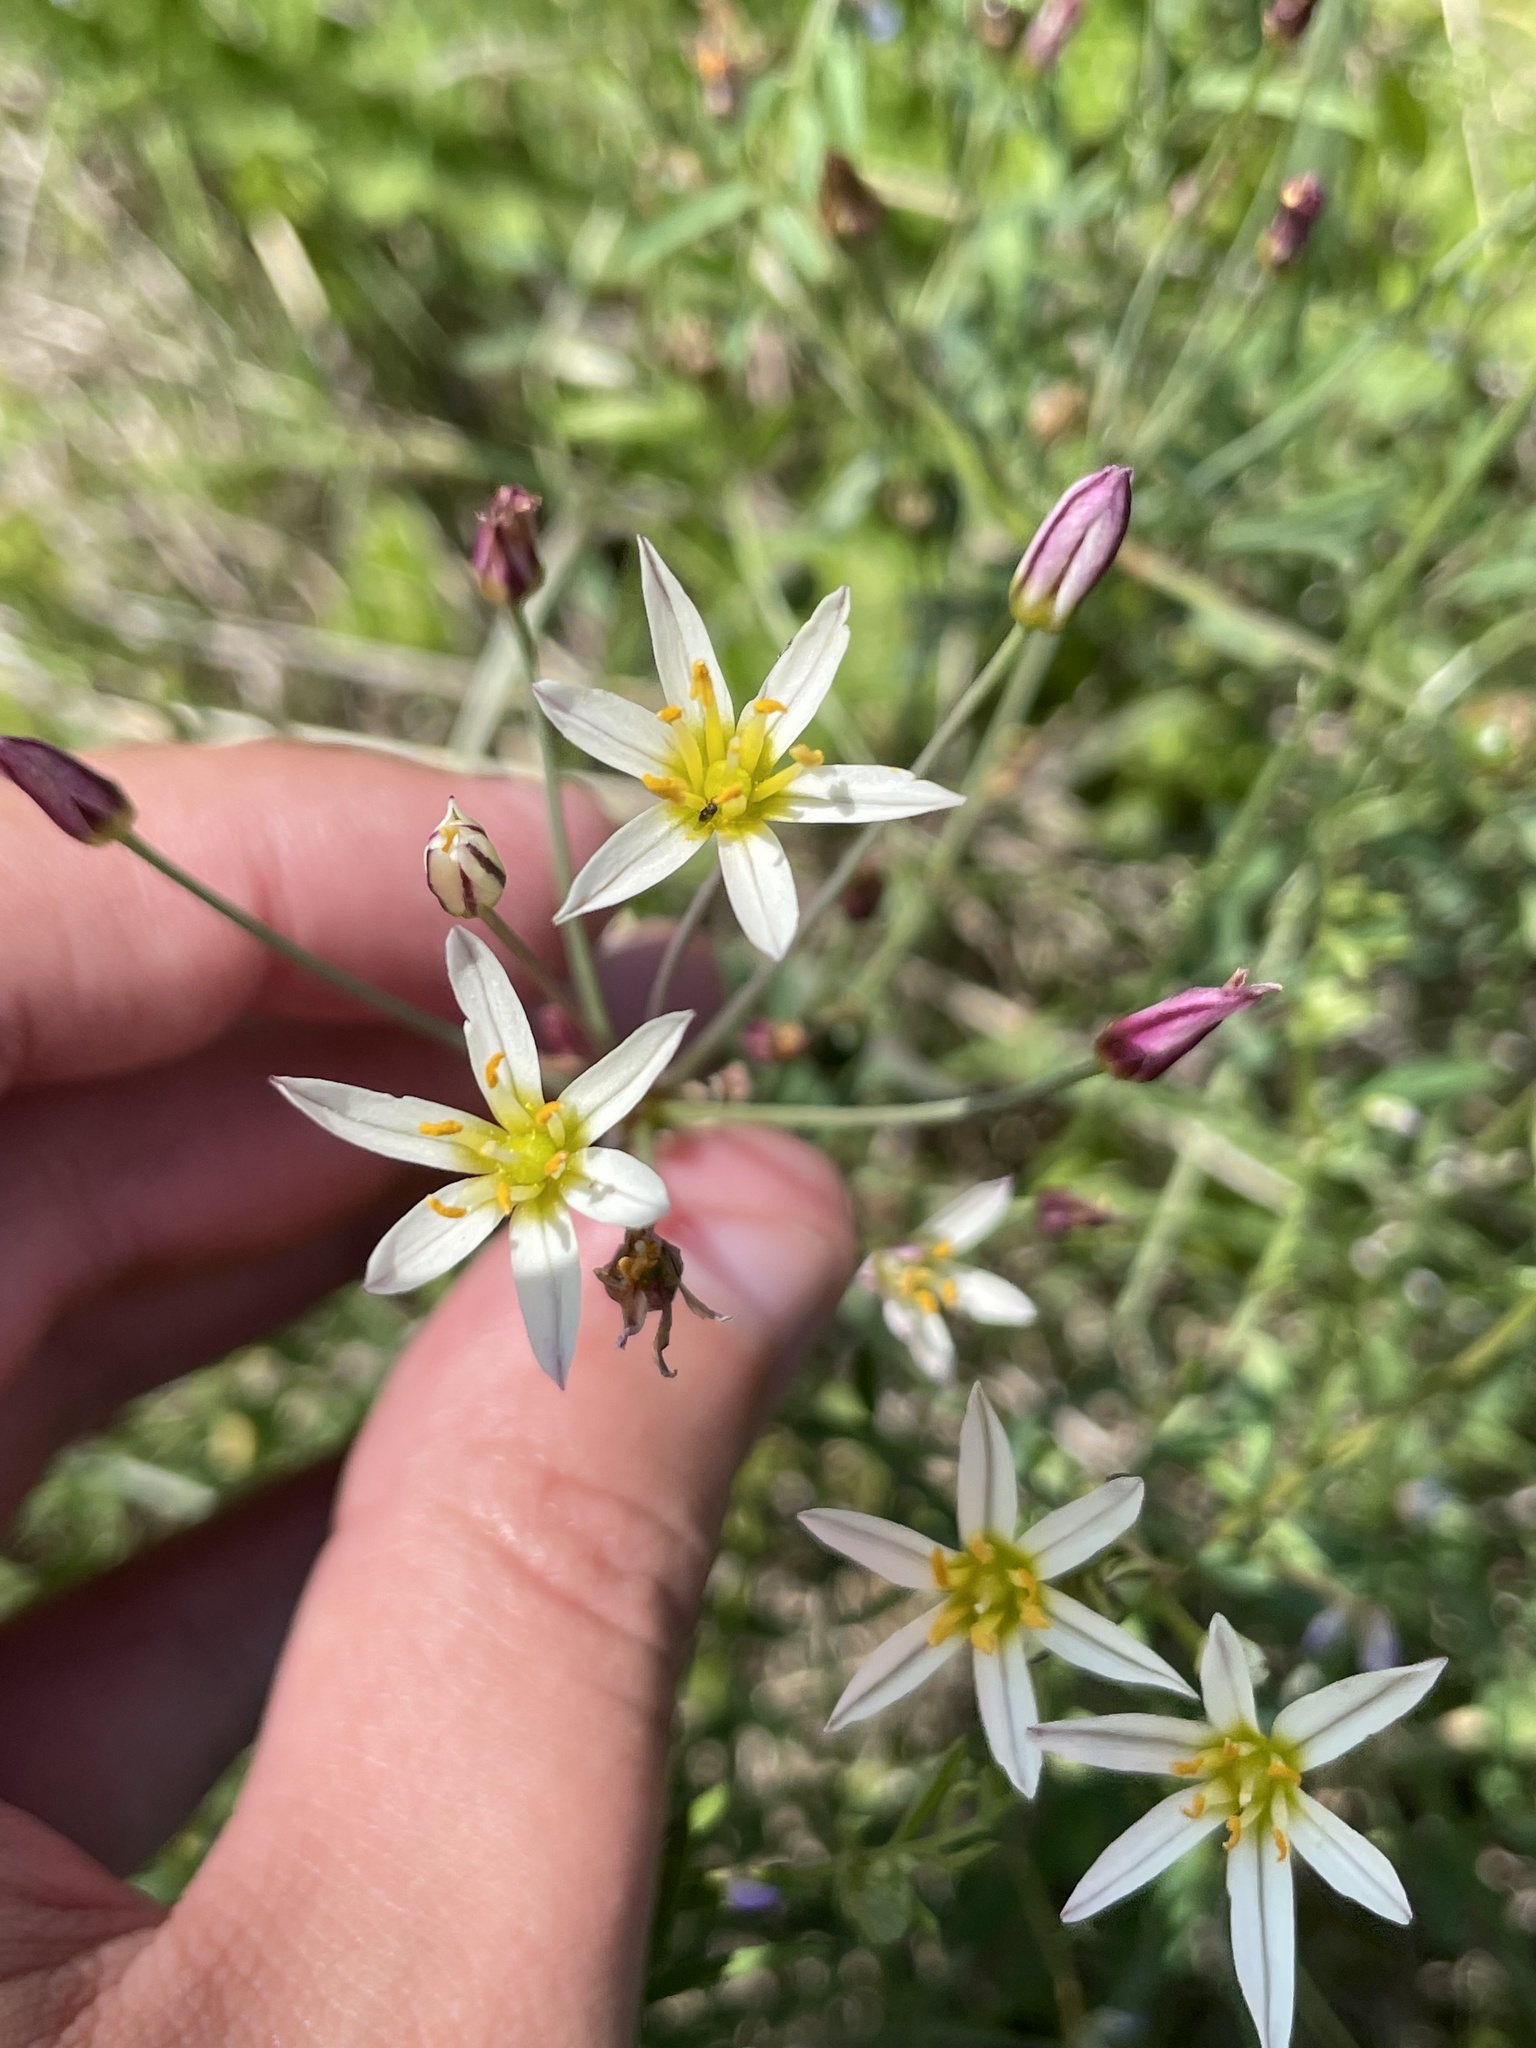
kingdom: Plantae
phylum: Tracheophyta
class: Liliopsida
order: Asparagales
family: Amaryllidaceae
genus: Nothoscordum
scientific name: Nothoscordum bivalve
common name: Crow-poison
